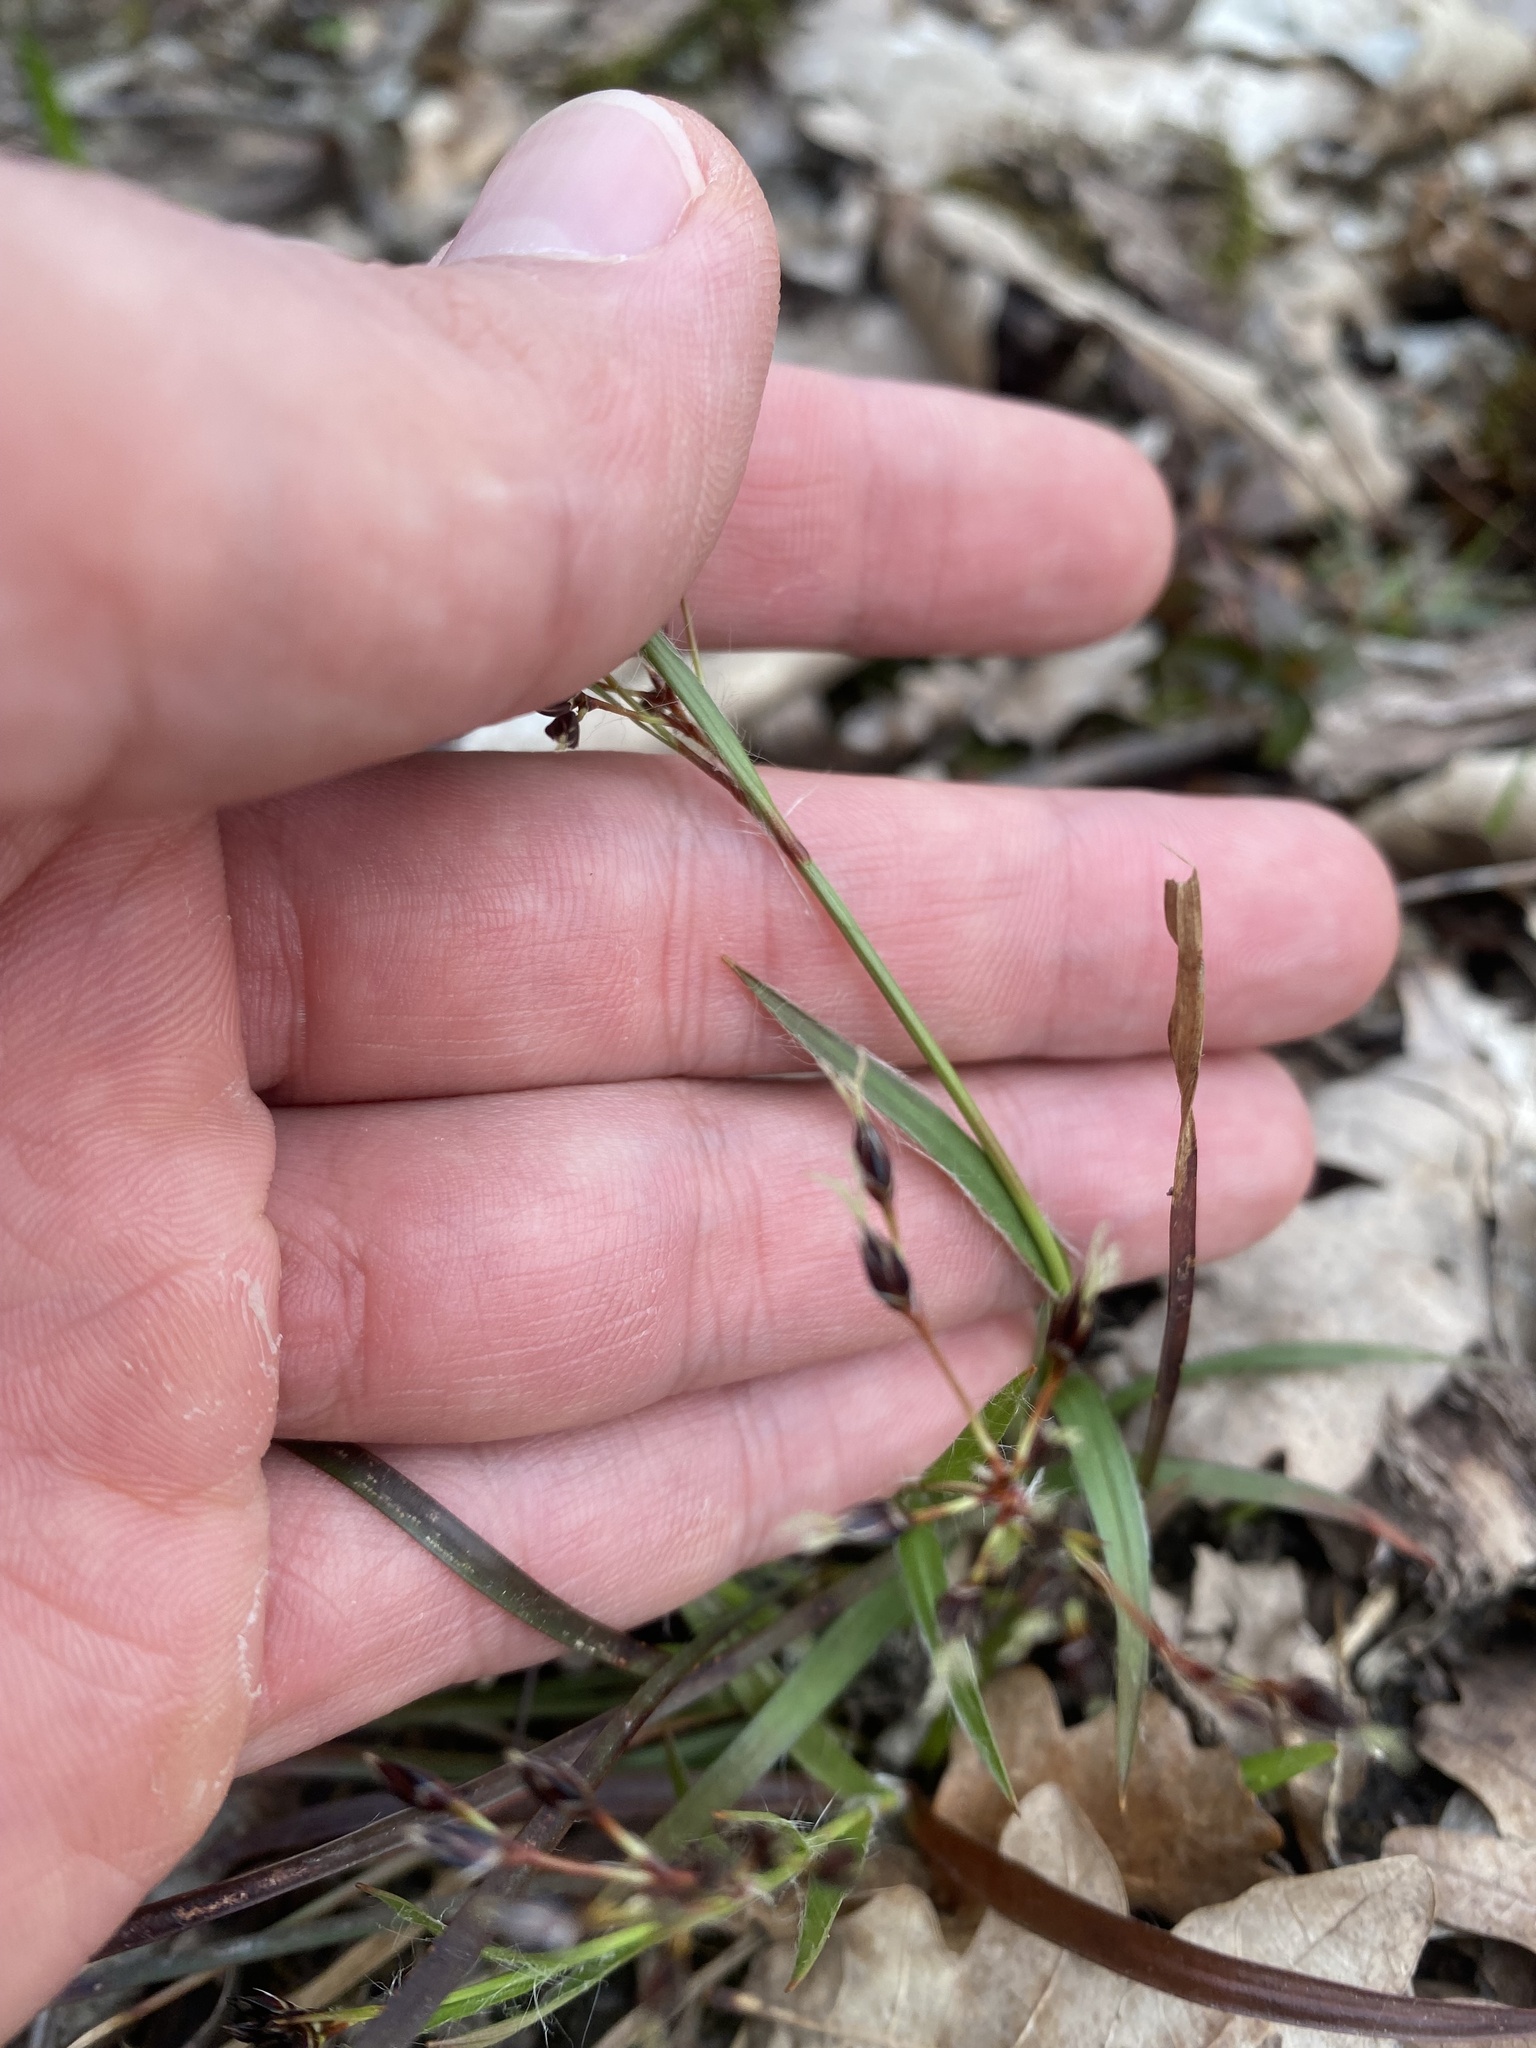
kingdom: Plantae
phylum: Tracheophyta
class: Liliopsida
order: Poales
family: Juncaceae
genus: Luzula
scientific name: Luzula forsteri
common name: Southern wood-rush
